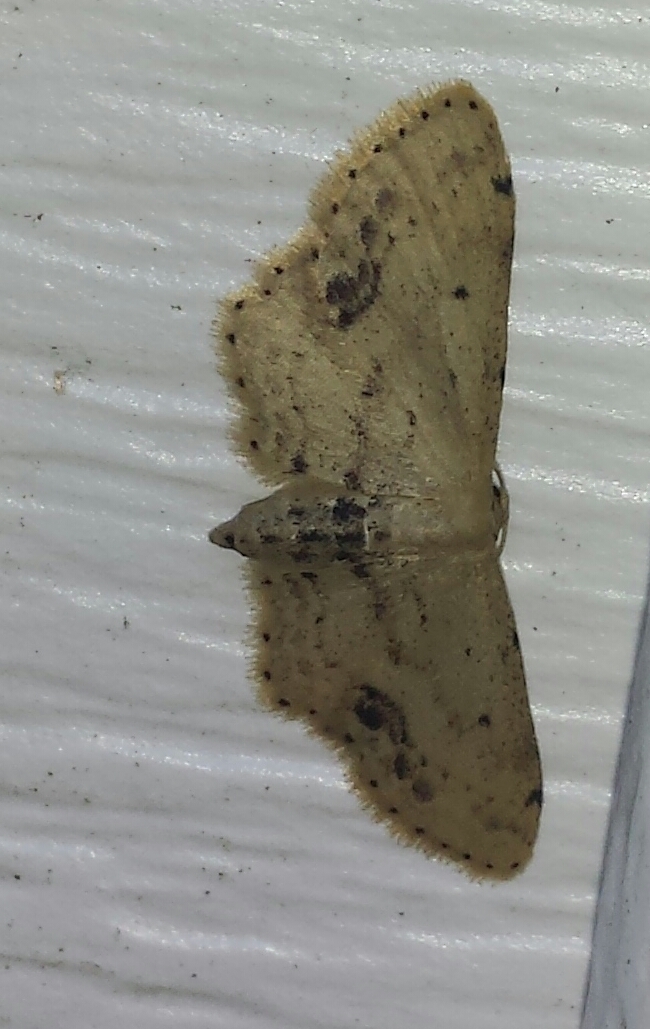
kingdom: Animalia
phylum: Arthropoda
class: Insecta
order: Lepidoptera
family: Geometridae
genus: Idaea
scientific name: Idaea dimidiata
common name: Single-dotted wave
